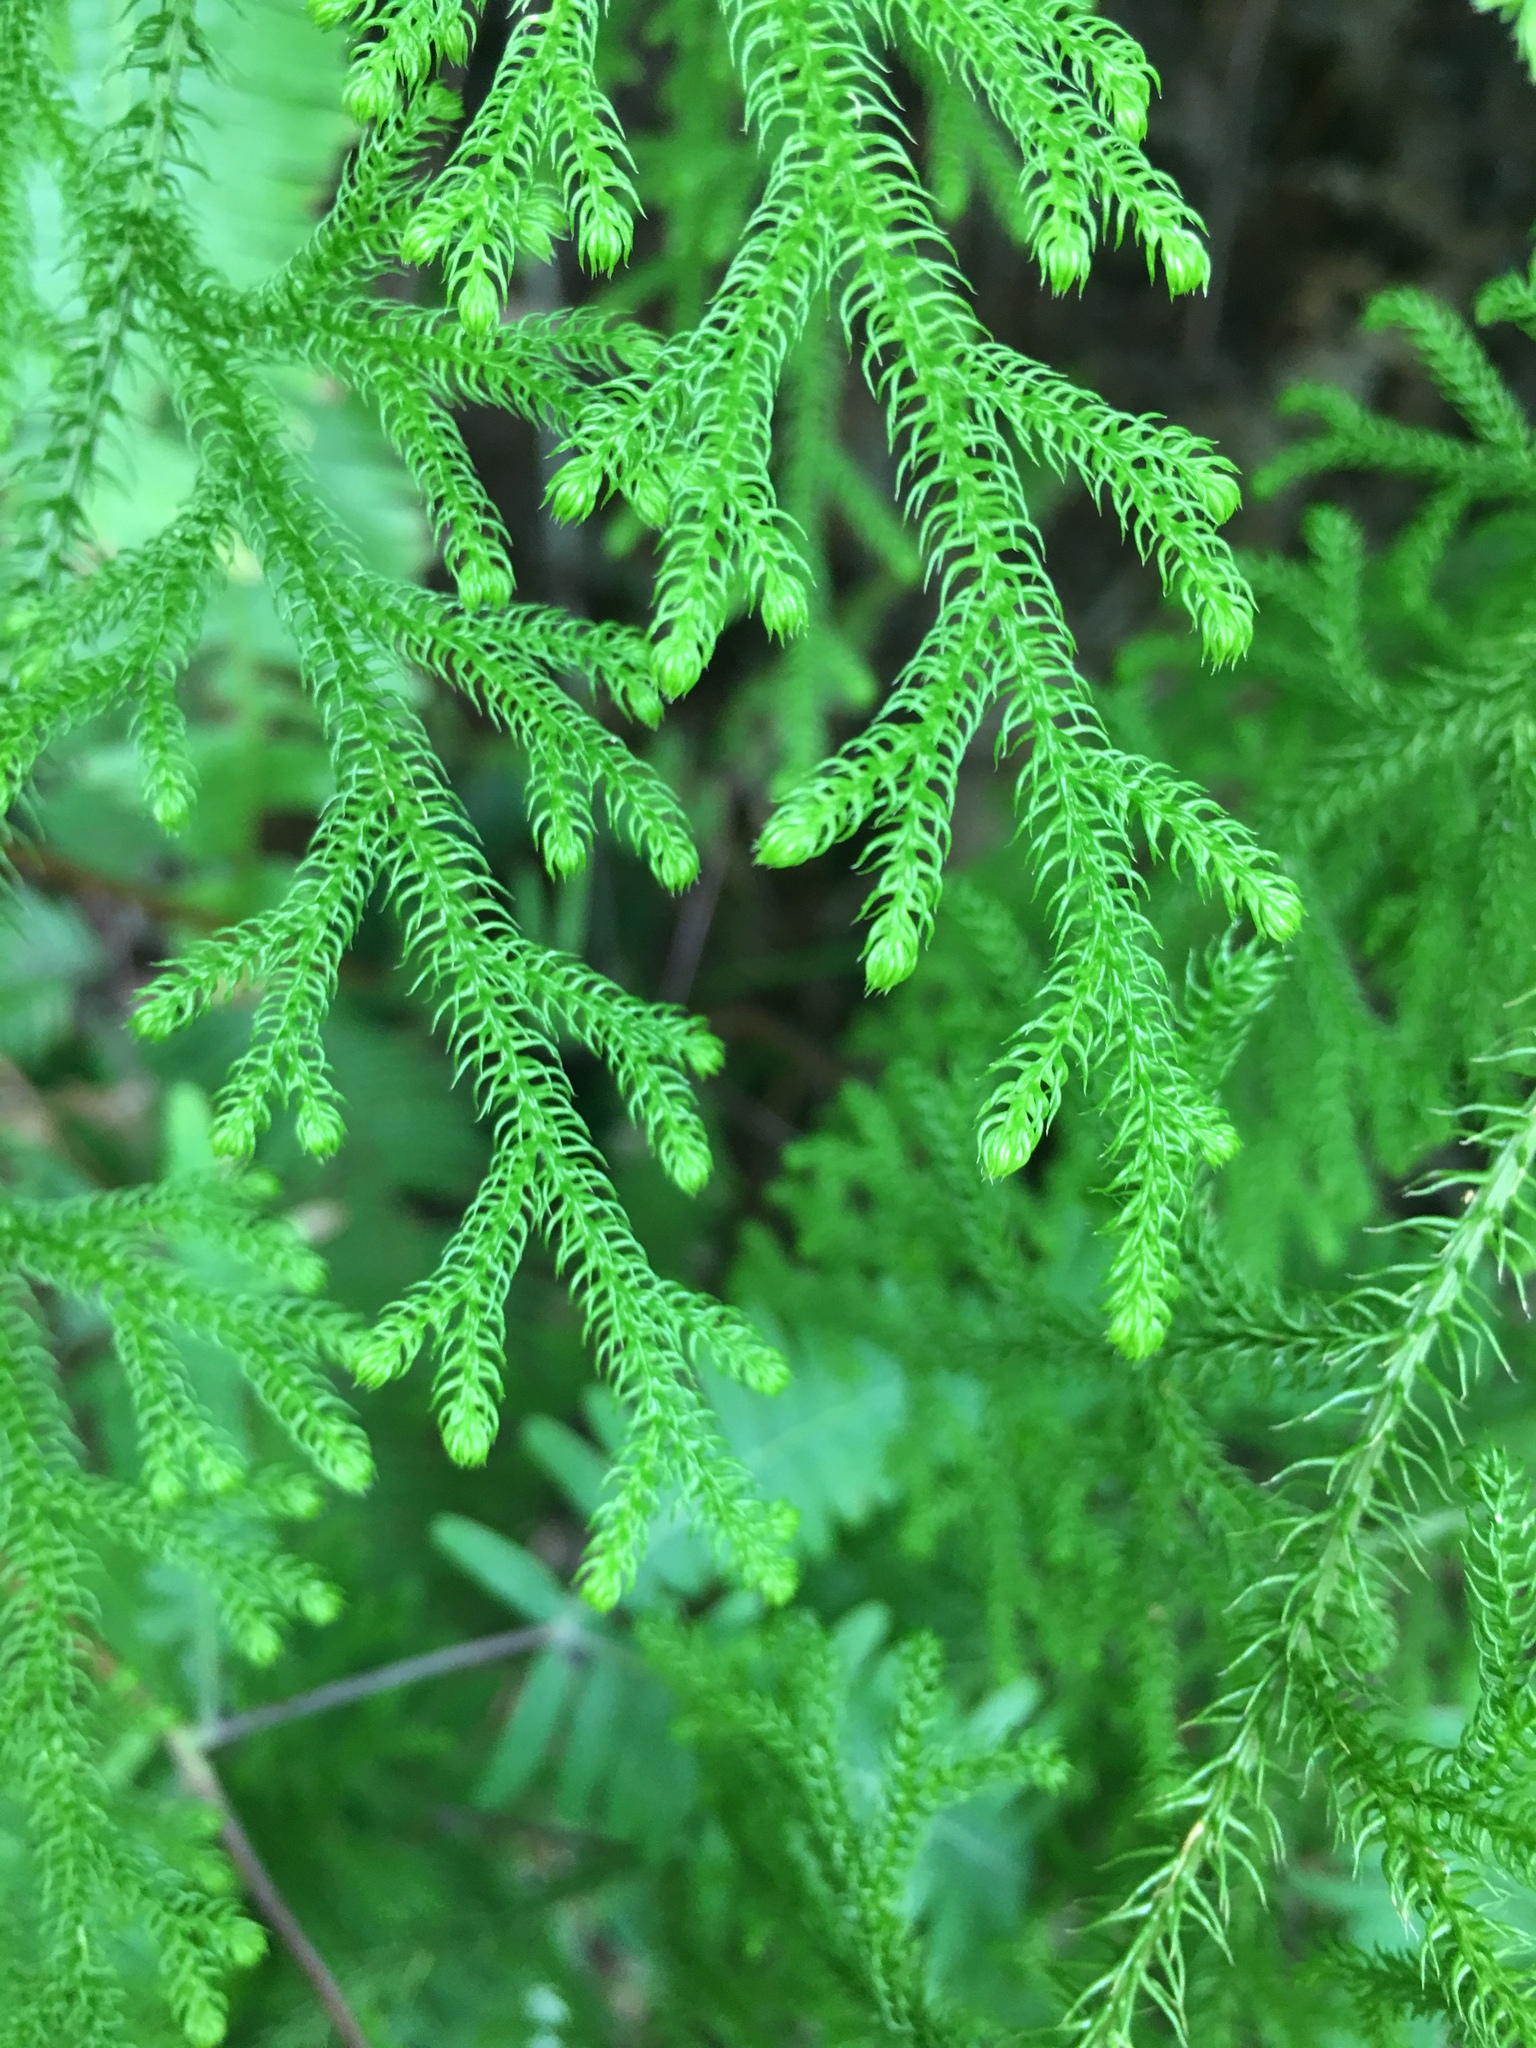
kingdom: Plantae
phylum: Tracheophyta
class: Lycopodiopsida
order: Lycopodiales
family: Lycopodiaceae
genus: Palhinhaea
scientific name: Palhinhaea cernua
